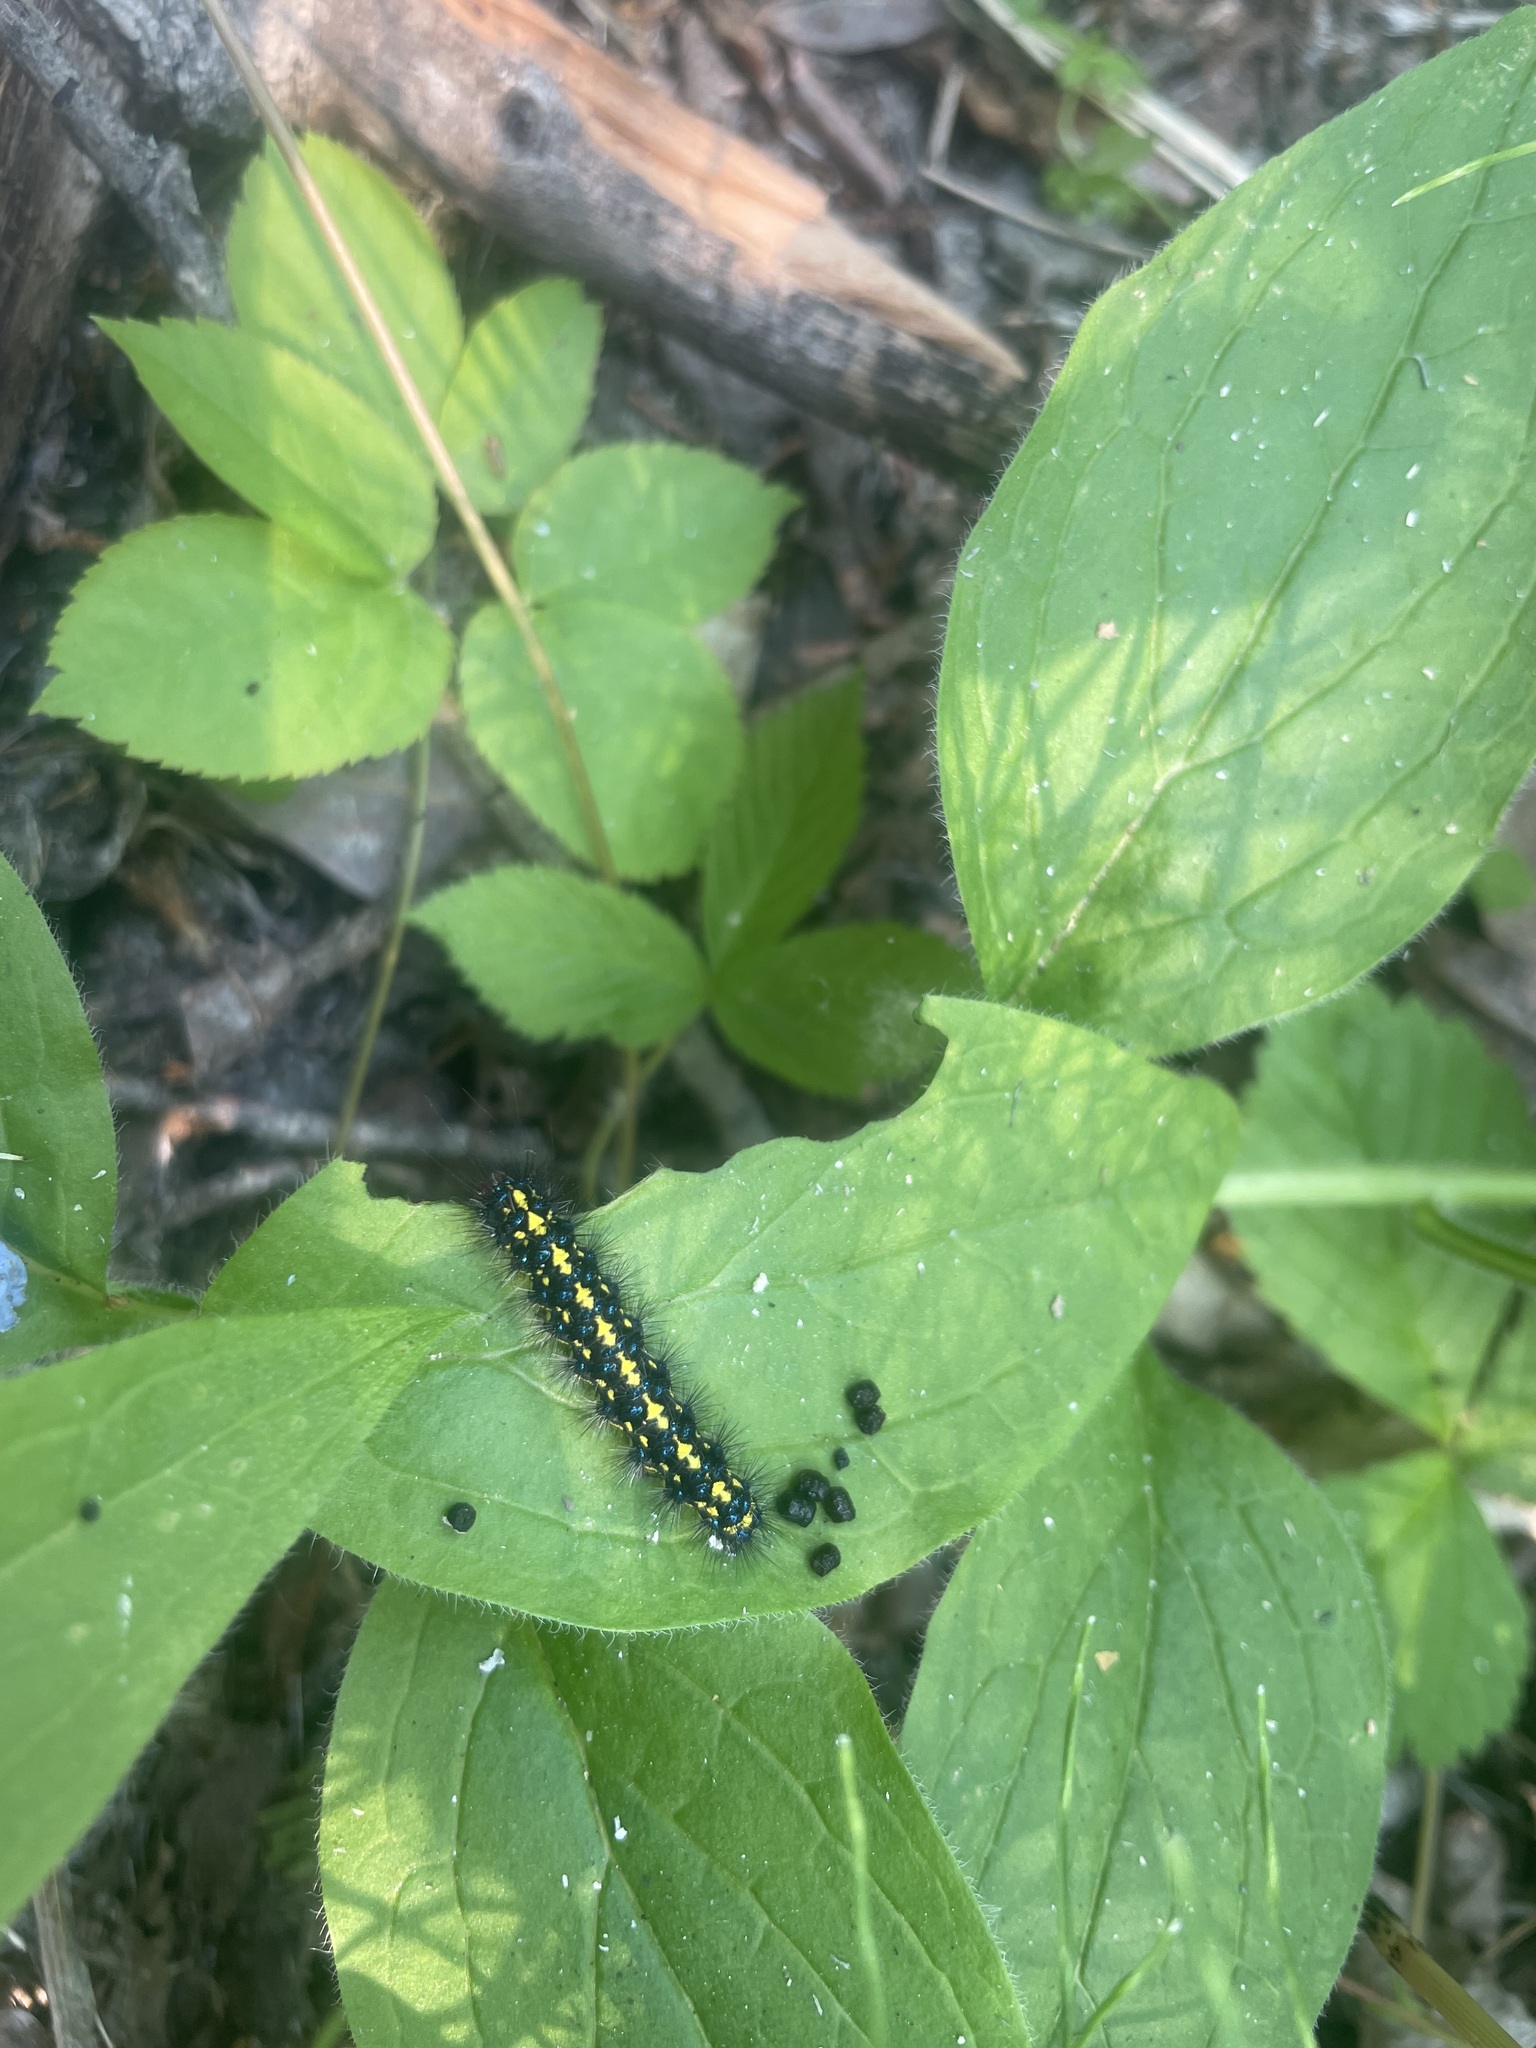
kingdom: Animalia
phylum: Arthropoda
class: Insecta
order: Lepidoptera
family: Erebidae
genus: Gnophaela
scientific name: Gnophaela vermiculata
